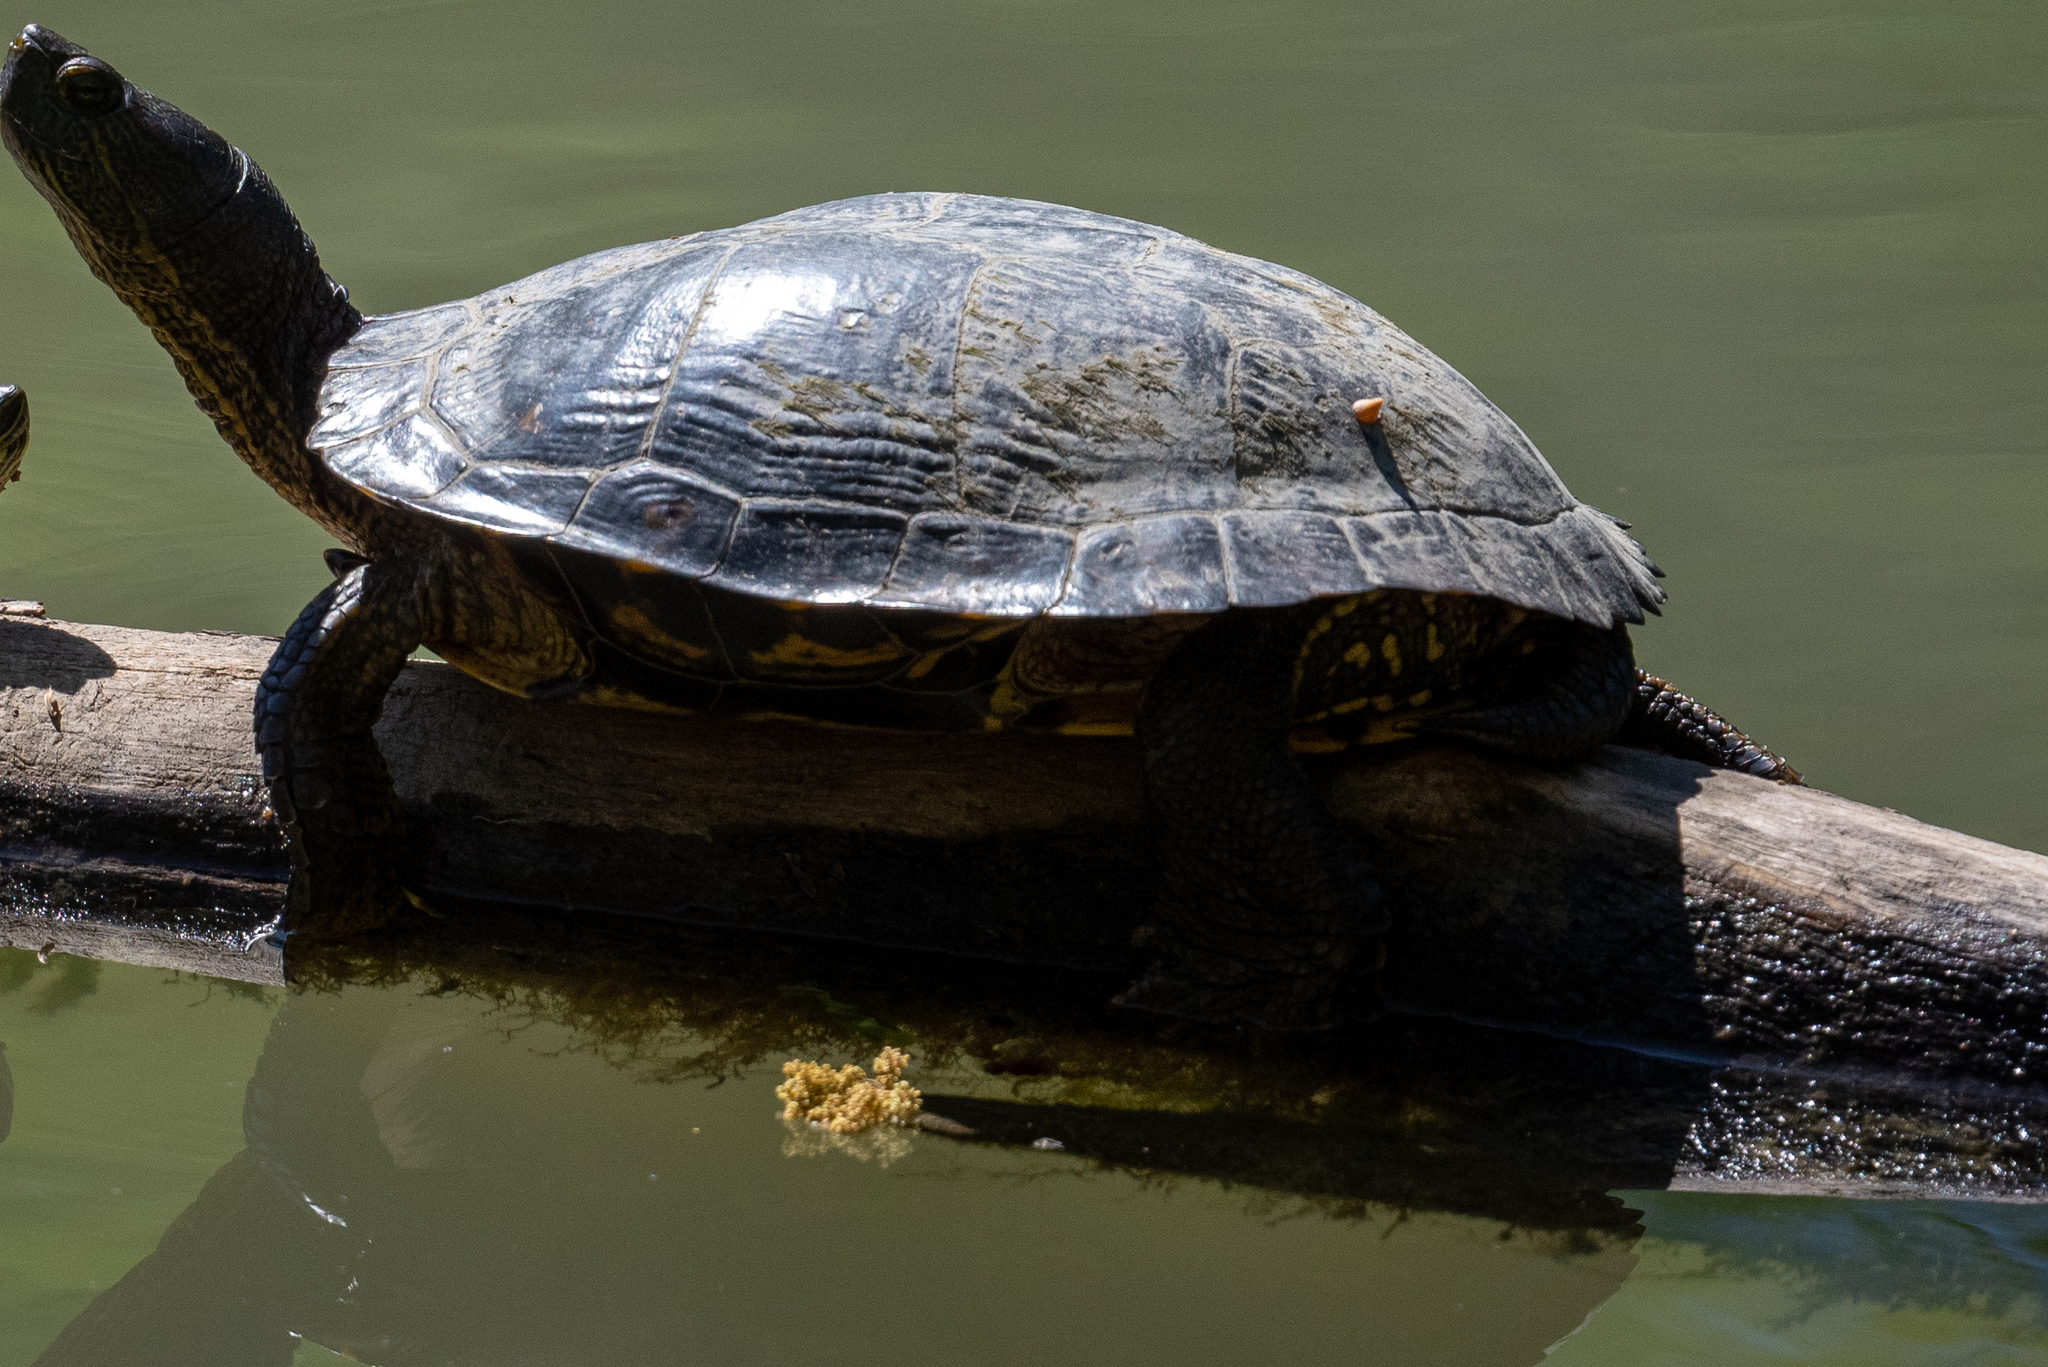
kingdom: Animalia
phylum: Chordata
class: Testudines
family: Emydidae
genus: Trachemys
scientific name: Trachemys scripta
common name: Slider
